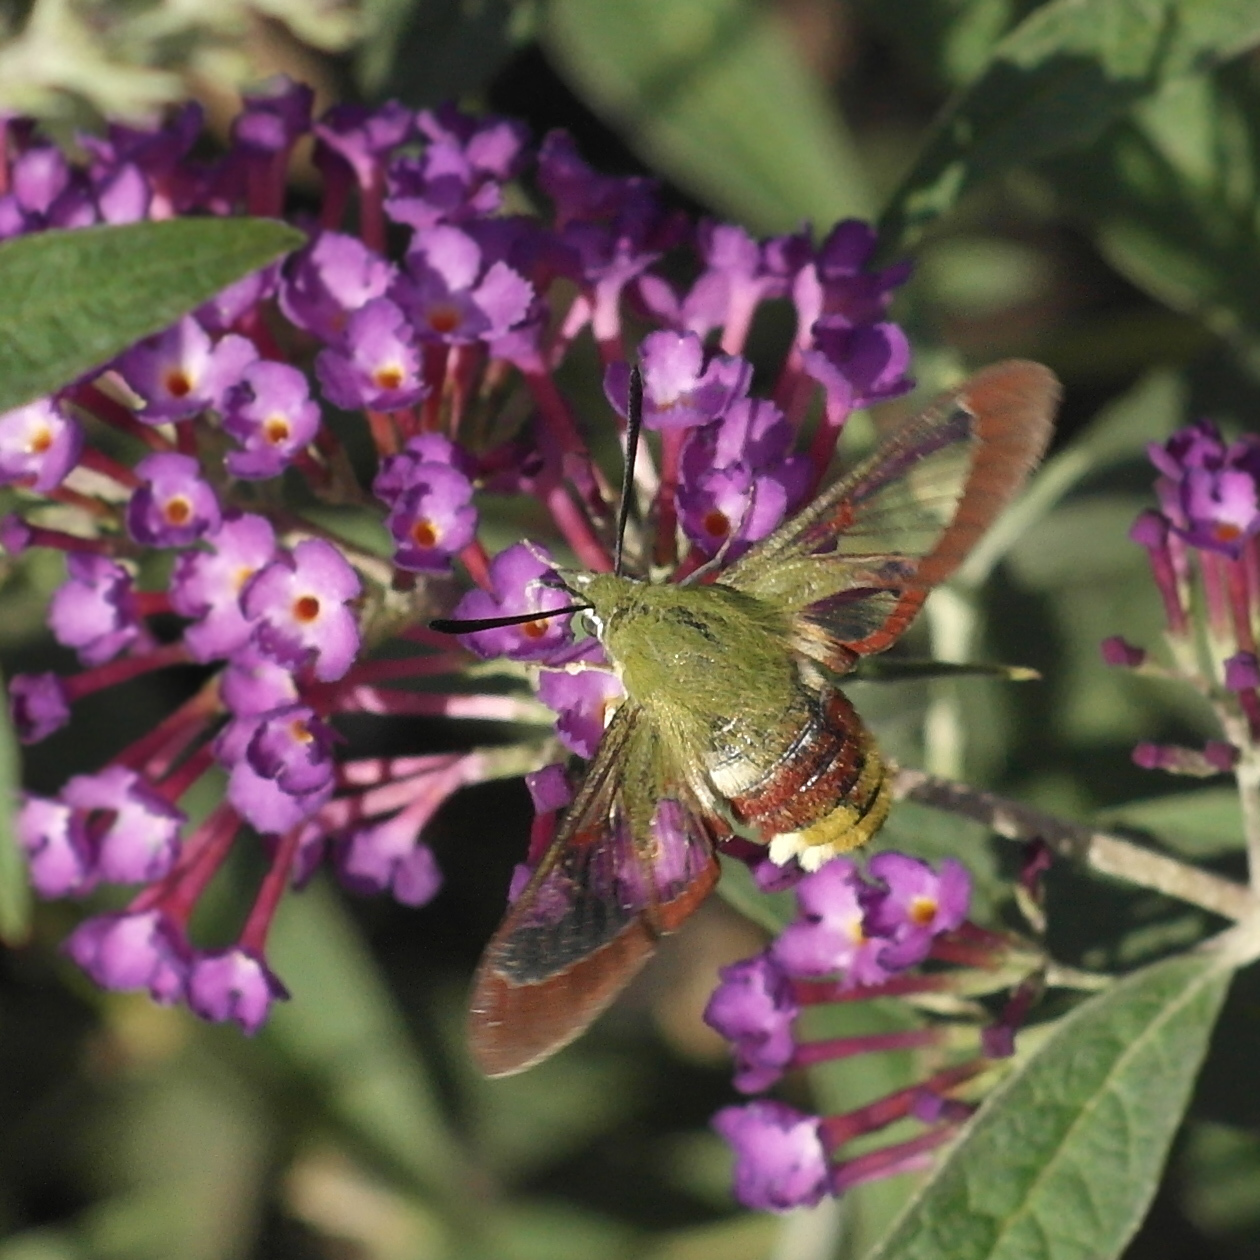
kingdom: Animalia
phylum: Arthropoda
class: Insecta
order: Lepidoptera
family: Sphingidae
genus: Hemaris
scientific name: Hemaris fuciformis
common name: Broad-bordered bee hawk-moth
